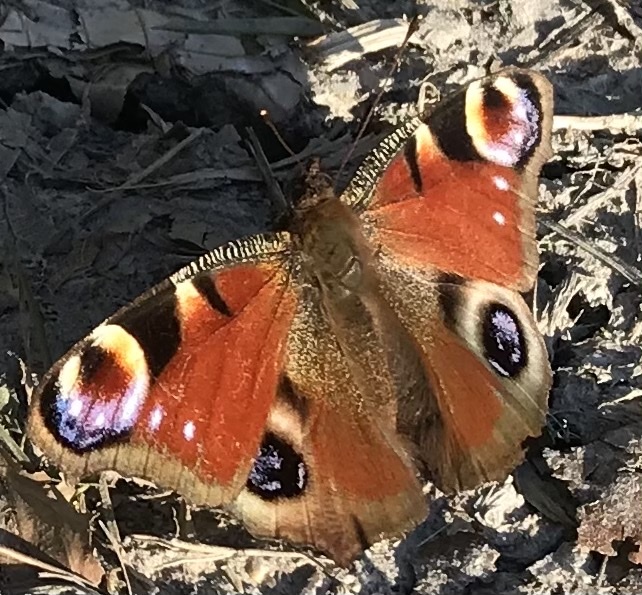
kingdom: Animalia
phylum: Arthropoda
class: Insecta
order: Lepidoptera
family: Nymphalidae
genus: Aglais
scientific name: Aglais io
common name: Peacock
